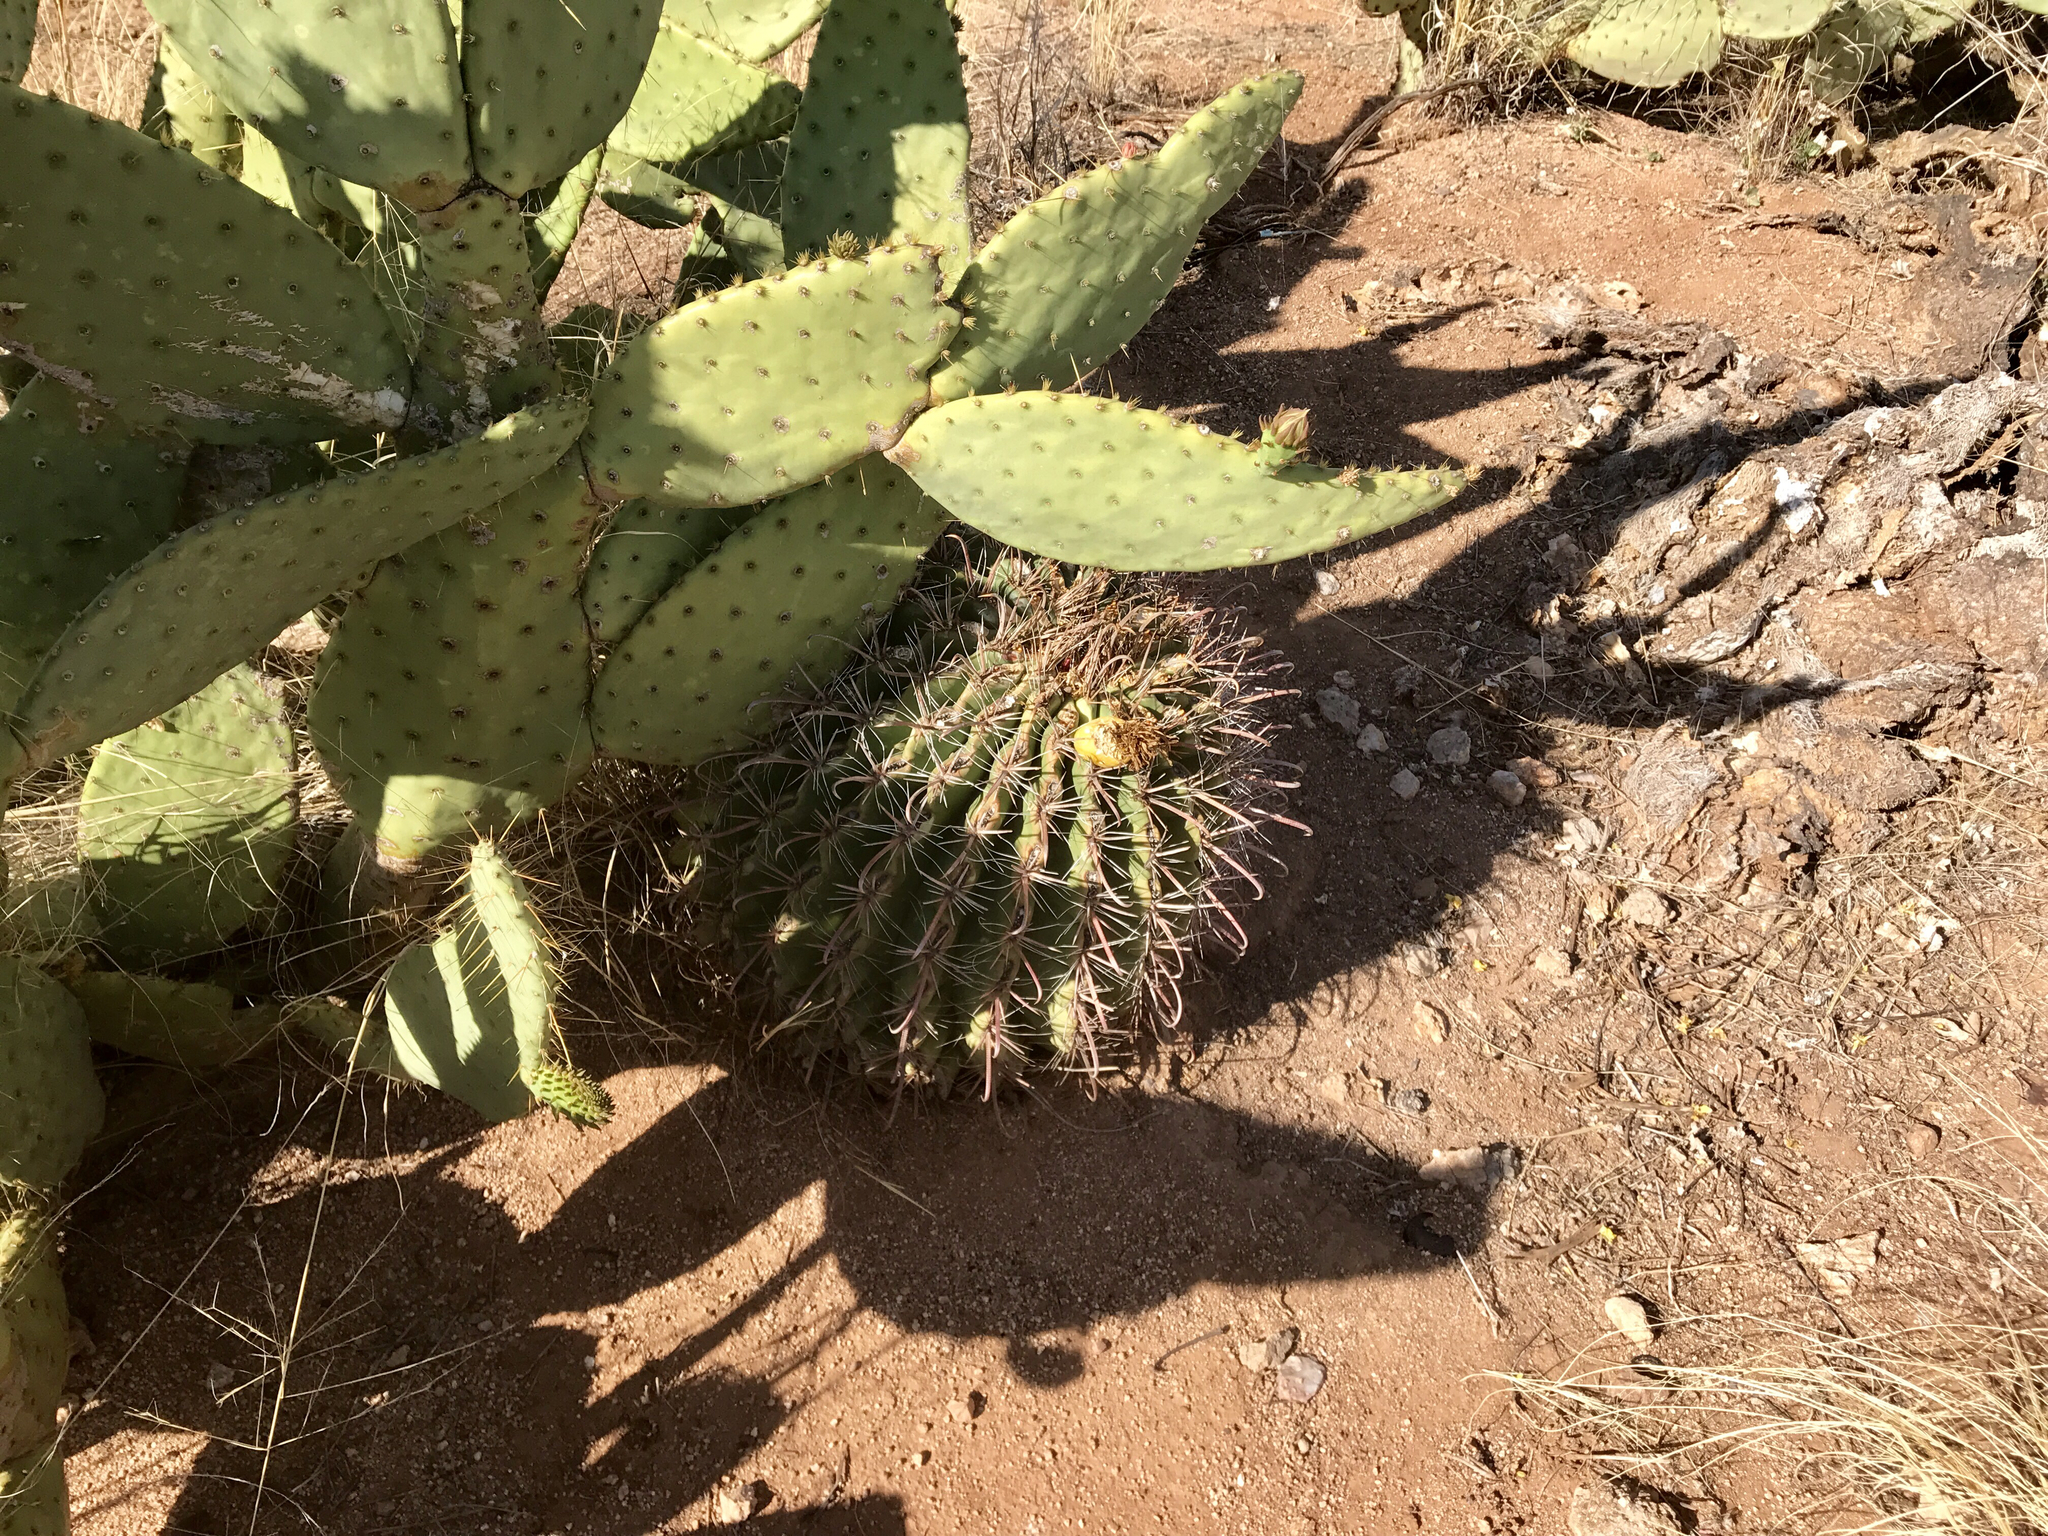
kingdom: Plantae
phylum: Tracheophyta
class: Magnoliopsida
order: Caryophyllales
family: Cactaceae
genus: Ferocactus
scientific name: Ferocactus wislizeni
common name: Candy barrel cactus
